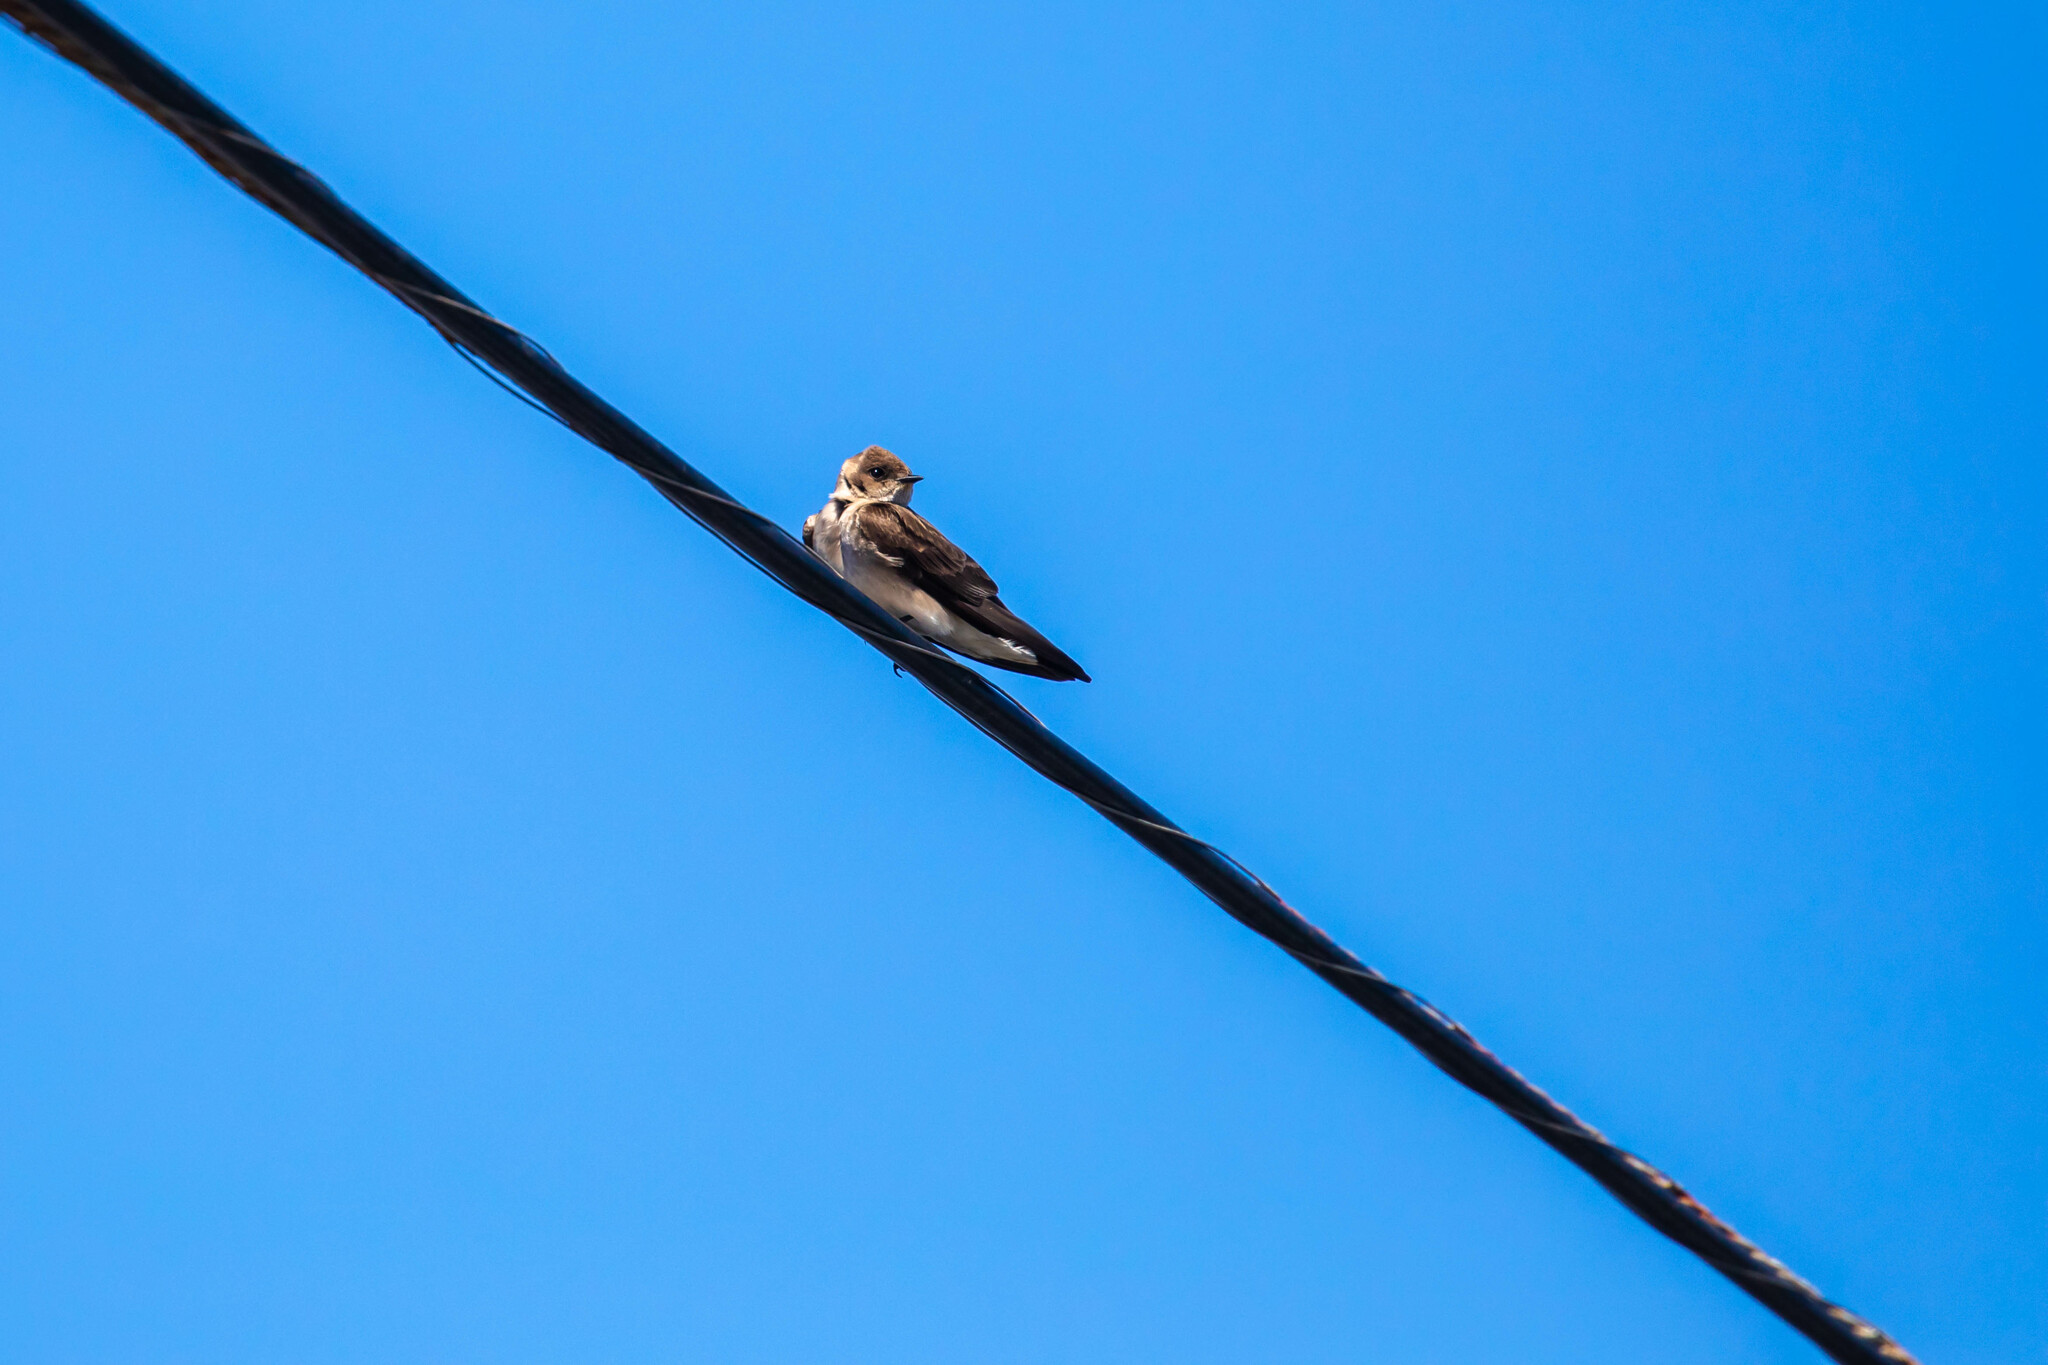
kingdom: Animalia
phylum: Chordata
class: Aves
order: Passeriformes
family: Hirundinidae
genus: Stelgidopteryx
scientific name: Stelgidopteryx serripennis
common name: Northern rough-winged swallow
